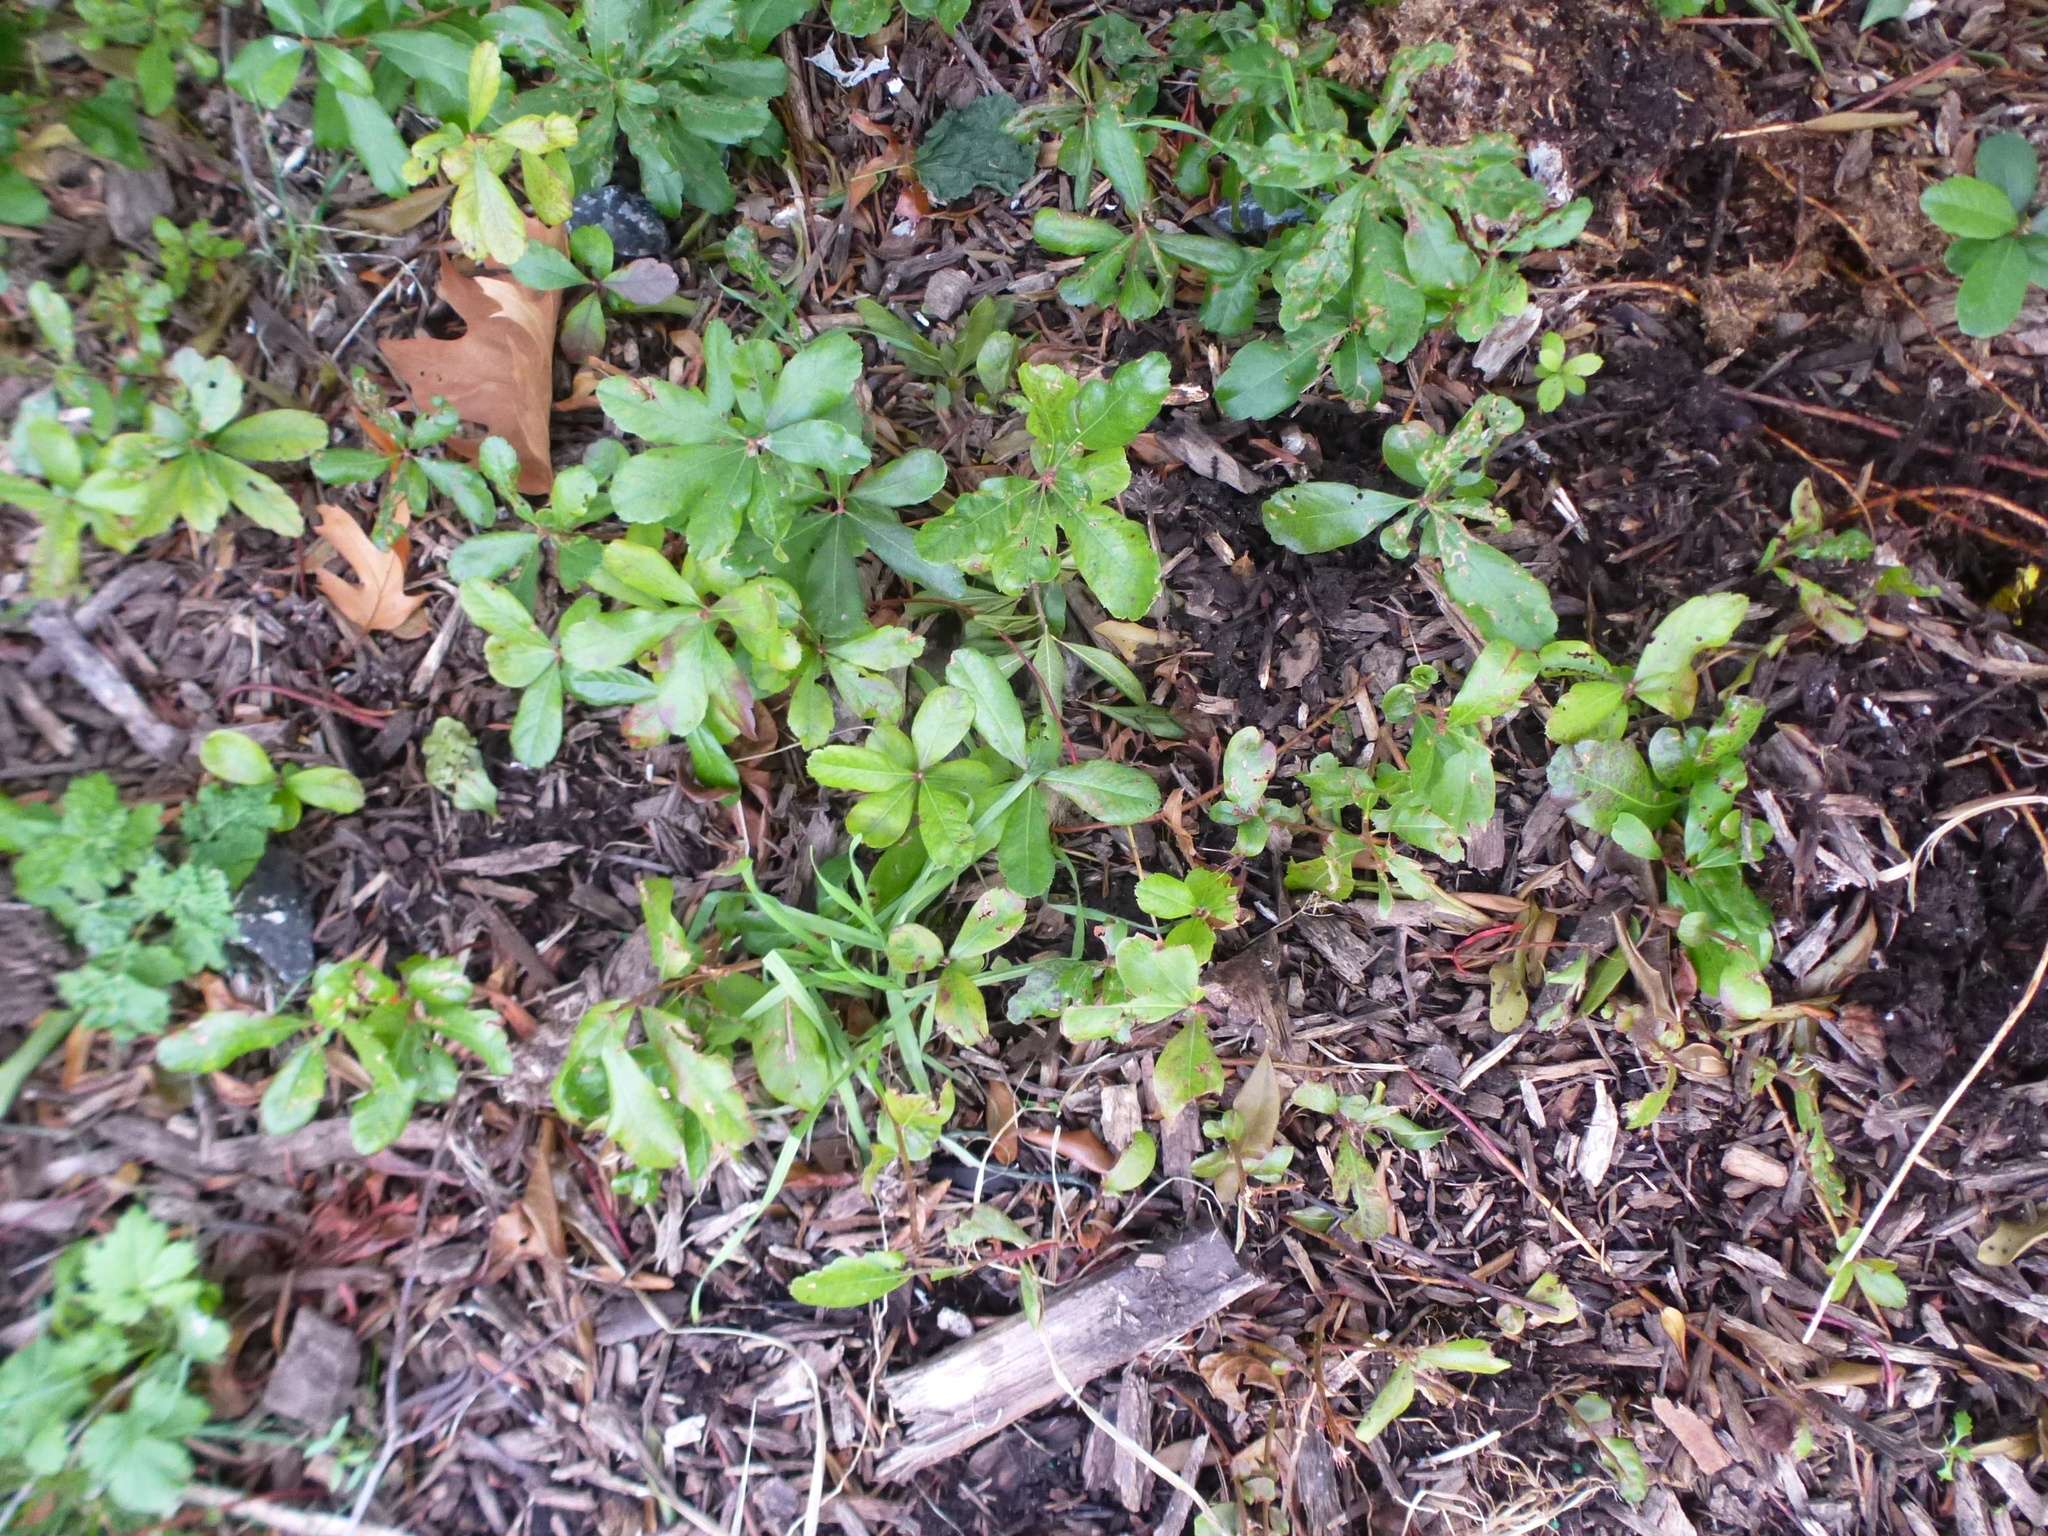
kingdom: Plantae
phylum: Tracheophyta
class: Magnoliopsida
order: Fagales
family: Myricaceae
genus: Morella
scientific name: Morella pensylvanica
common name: Northern bayberry
